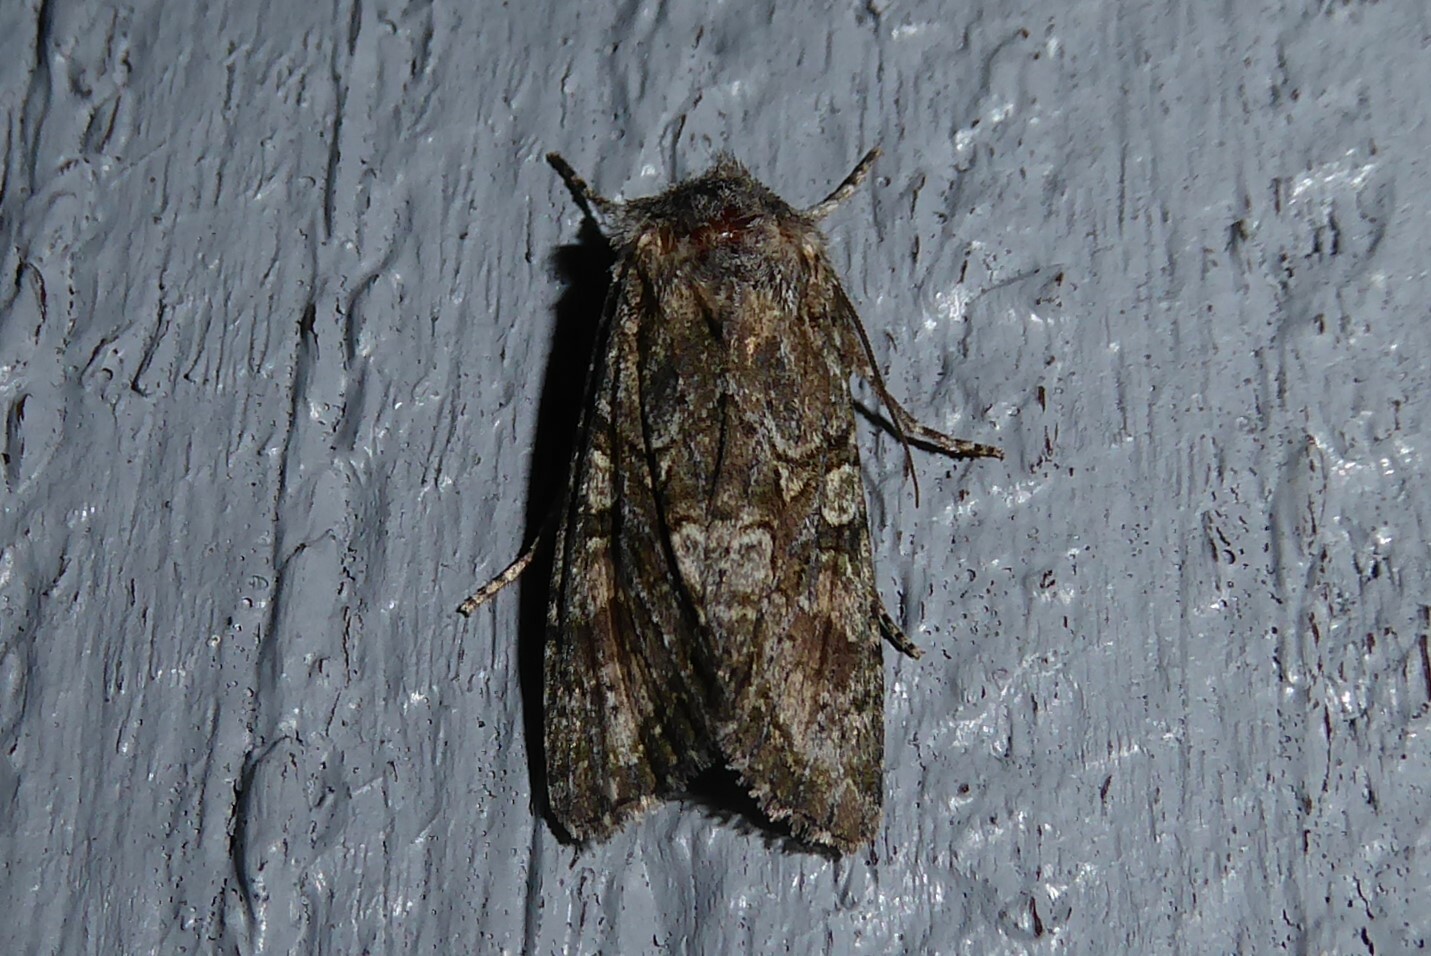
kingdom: Animalia
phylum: Arthropoda
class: Insecta
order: Lepidoptera
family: Noctuidae
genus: Ichneutica
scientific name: Ichneutica mutans
